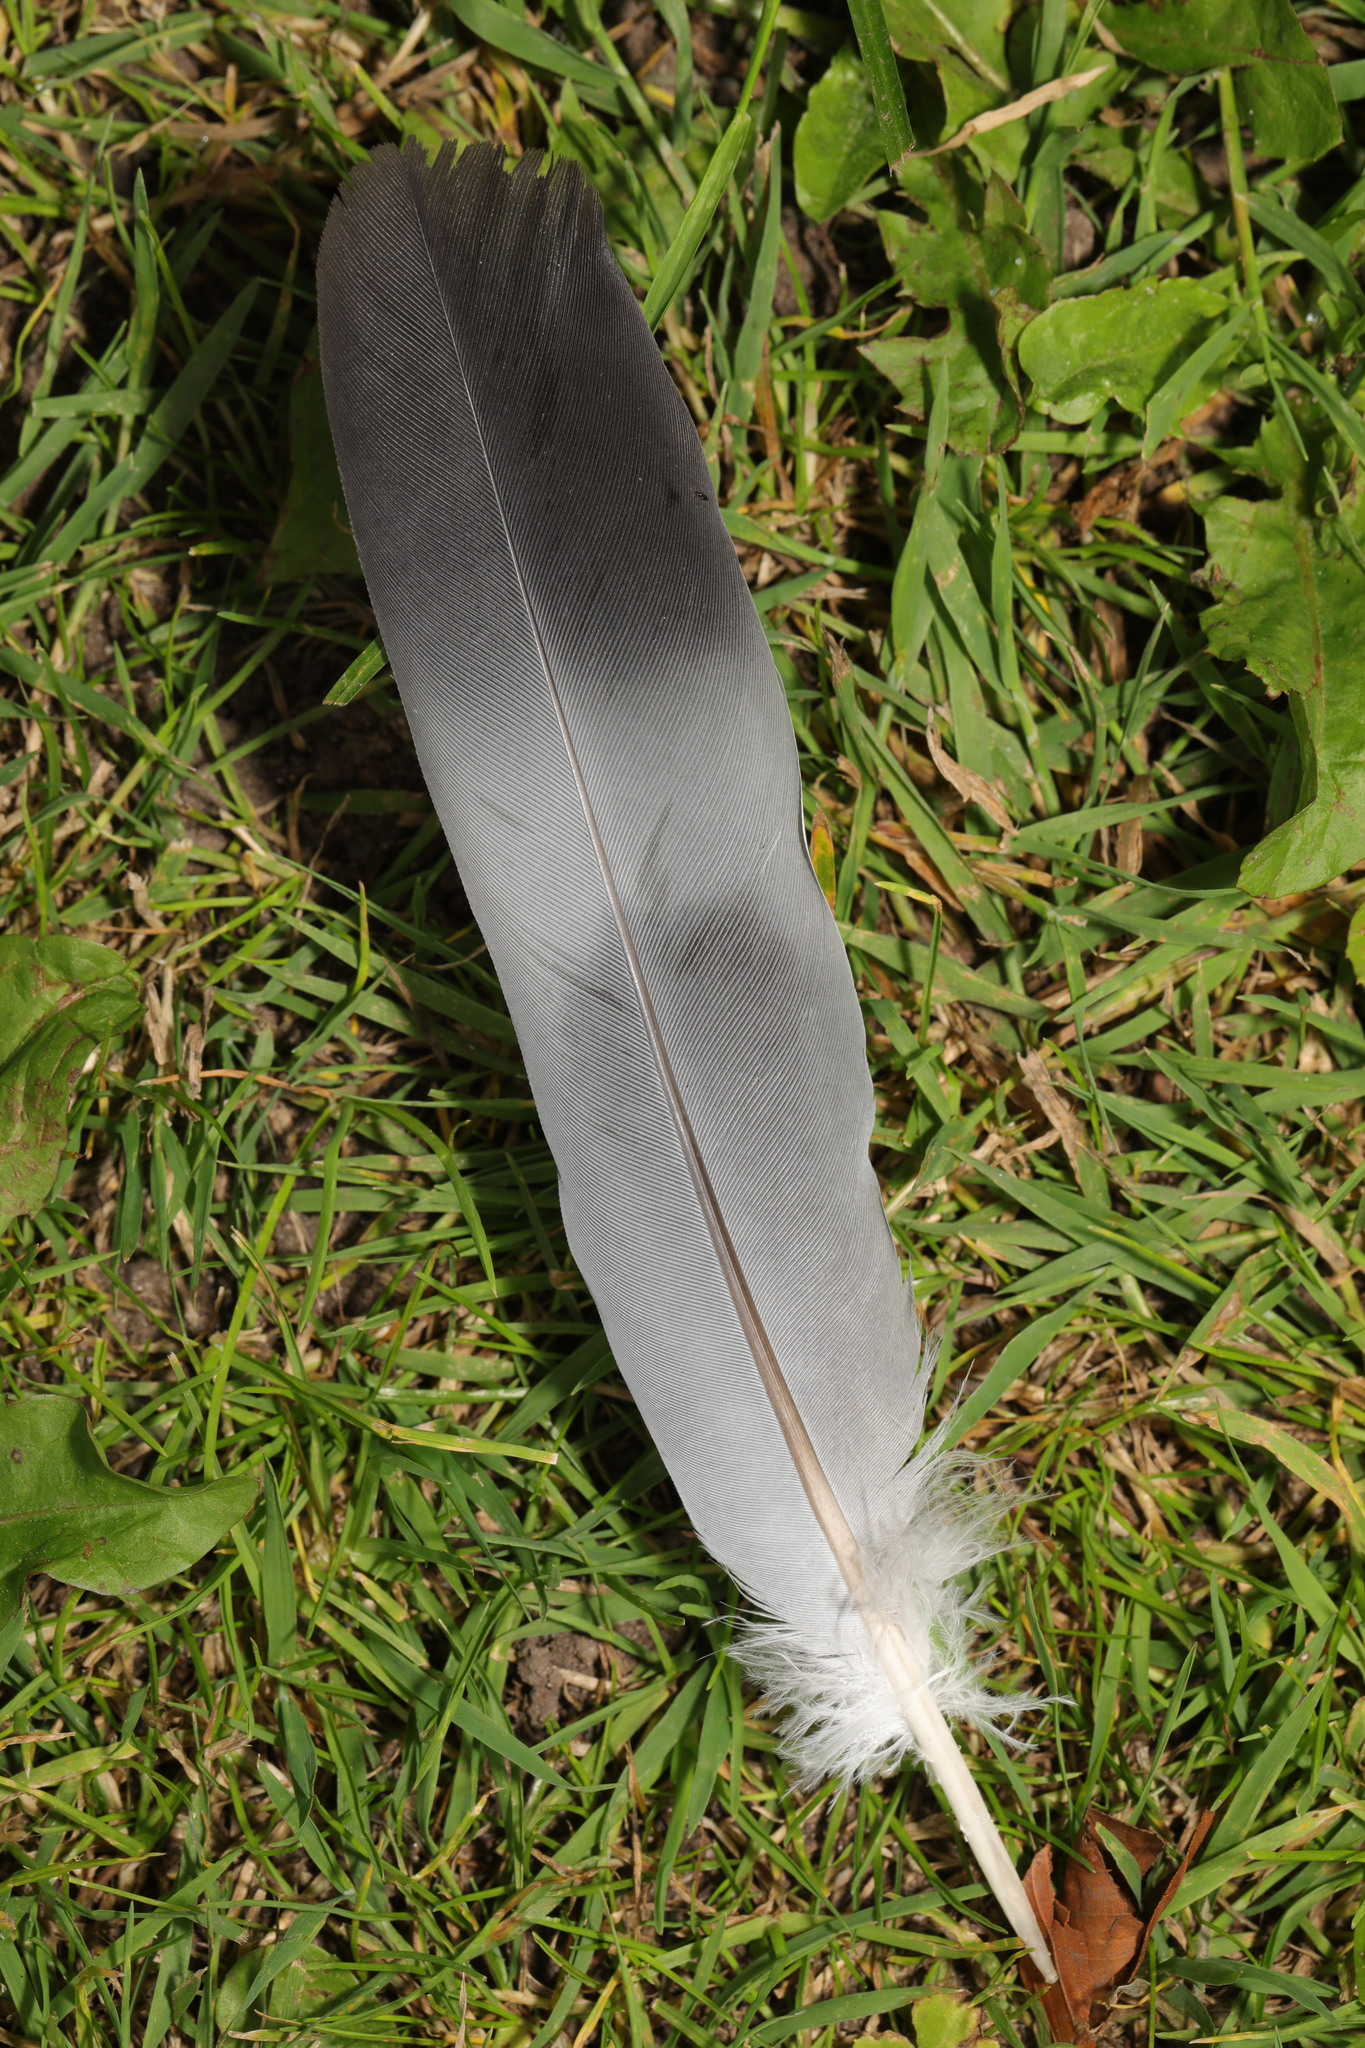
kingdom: Animalia
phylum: Chordata
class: Aves
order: Columbiformes
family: Columbidae
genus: Columba
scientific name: Columba palumbus
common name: Common wood pigeon
